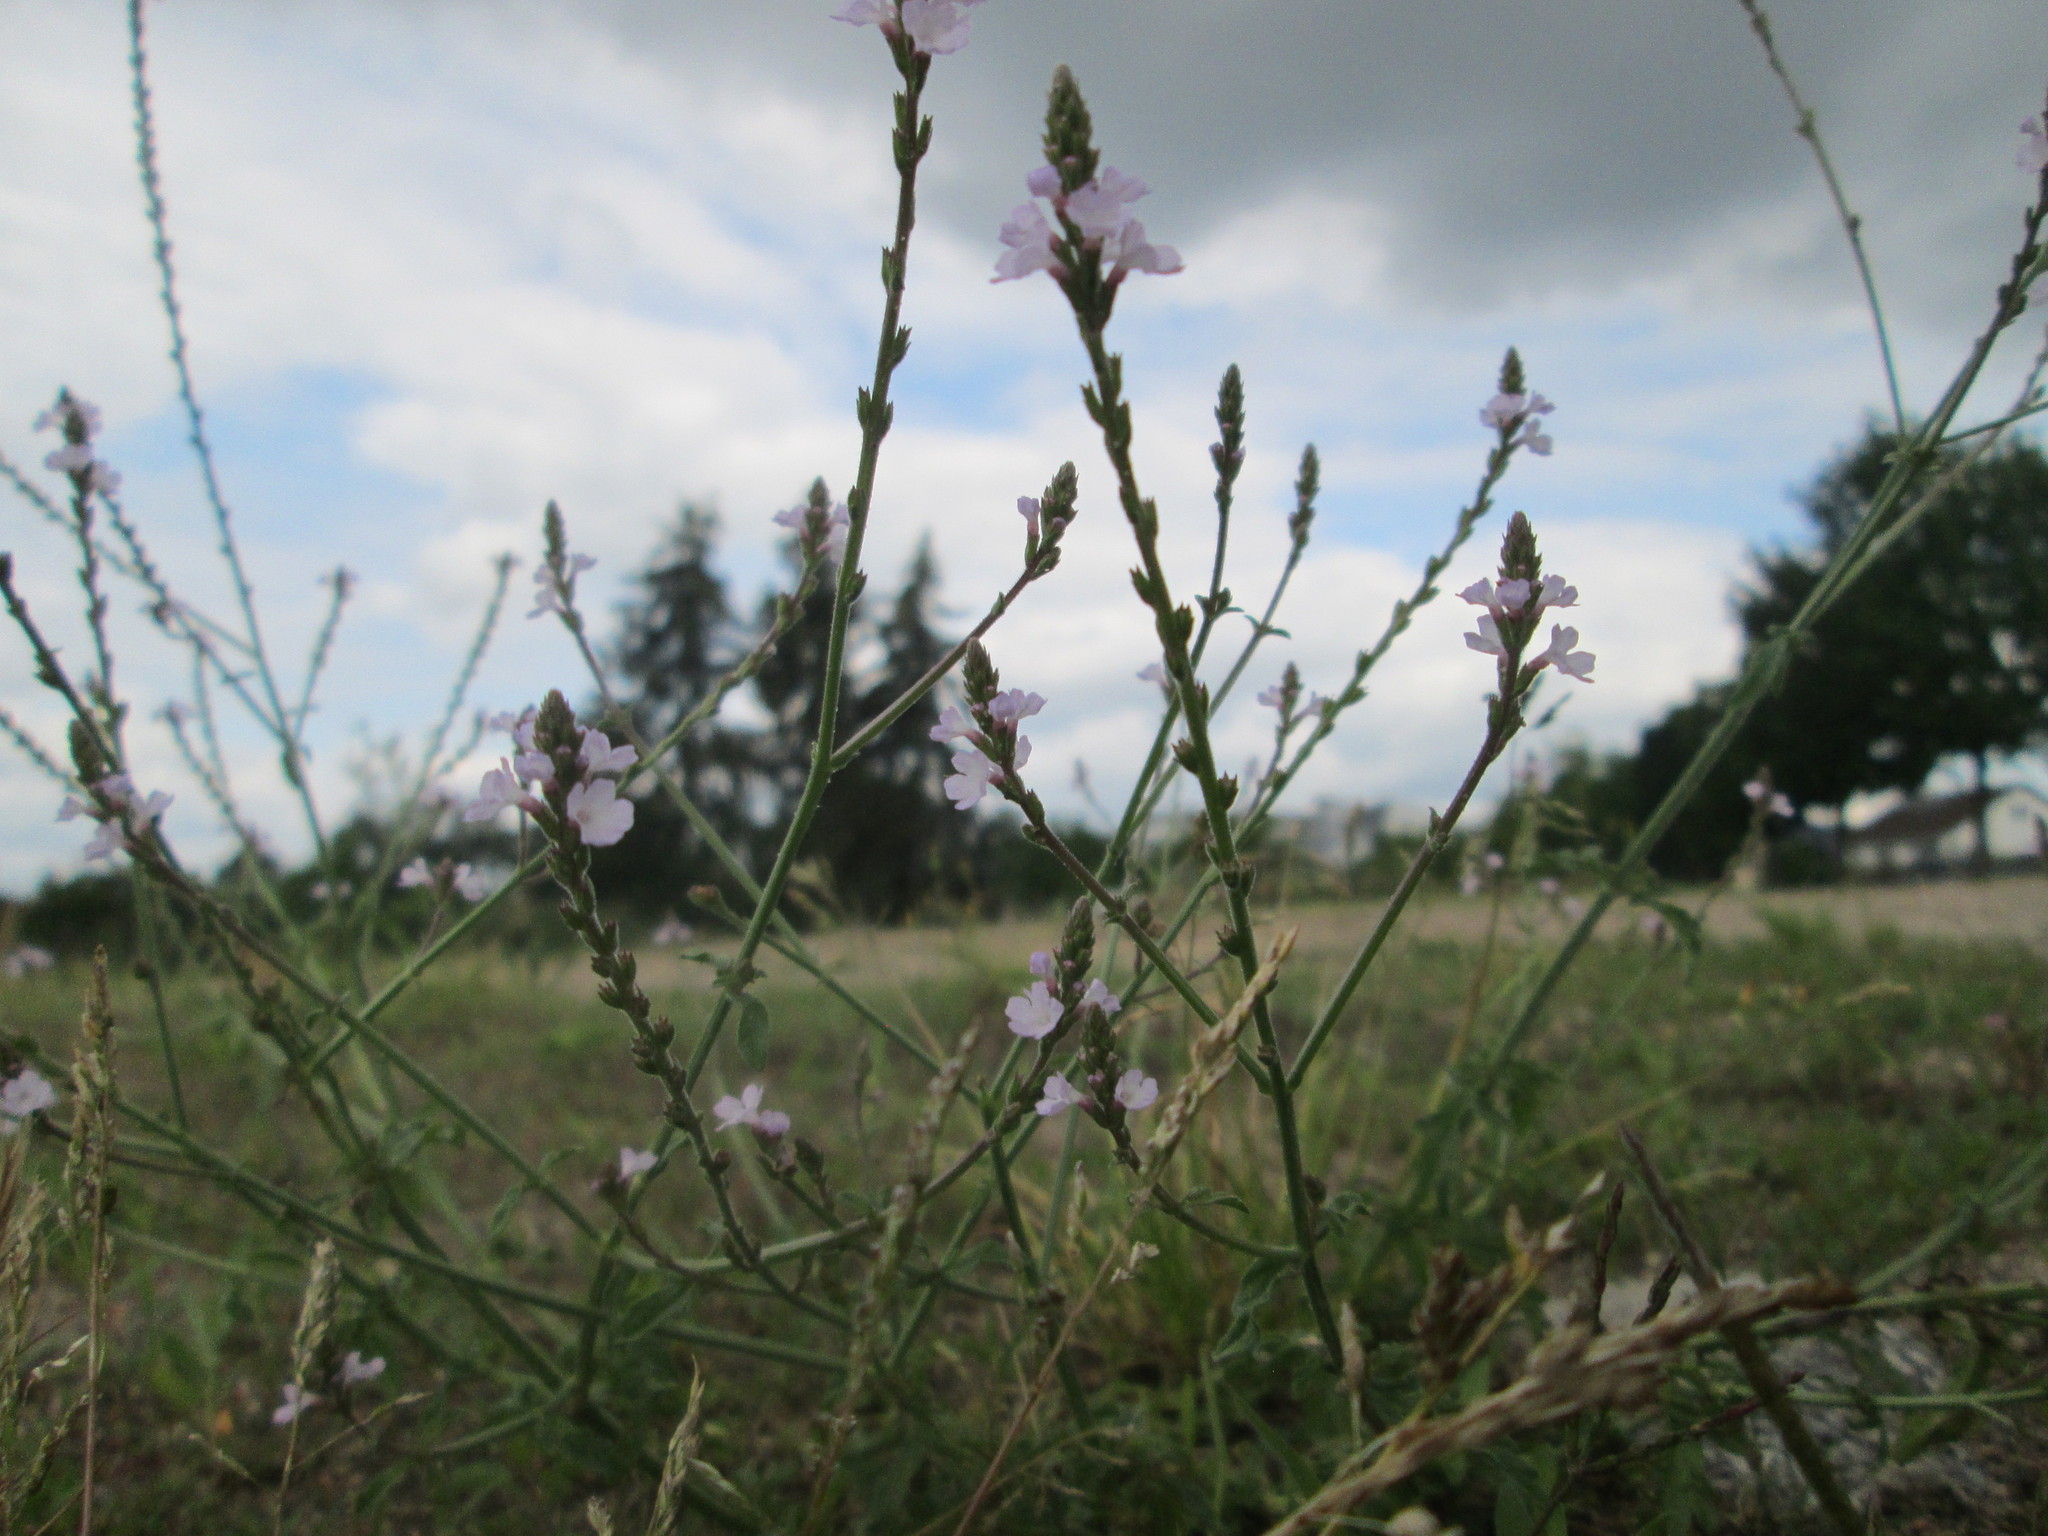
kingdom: Plantae
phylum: Tracheophyta
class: Magnoliopsida
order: Lamiales
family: Verbenaceae
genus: Verbena
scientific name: Verbena officinalis
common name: Vervain
